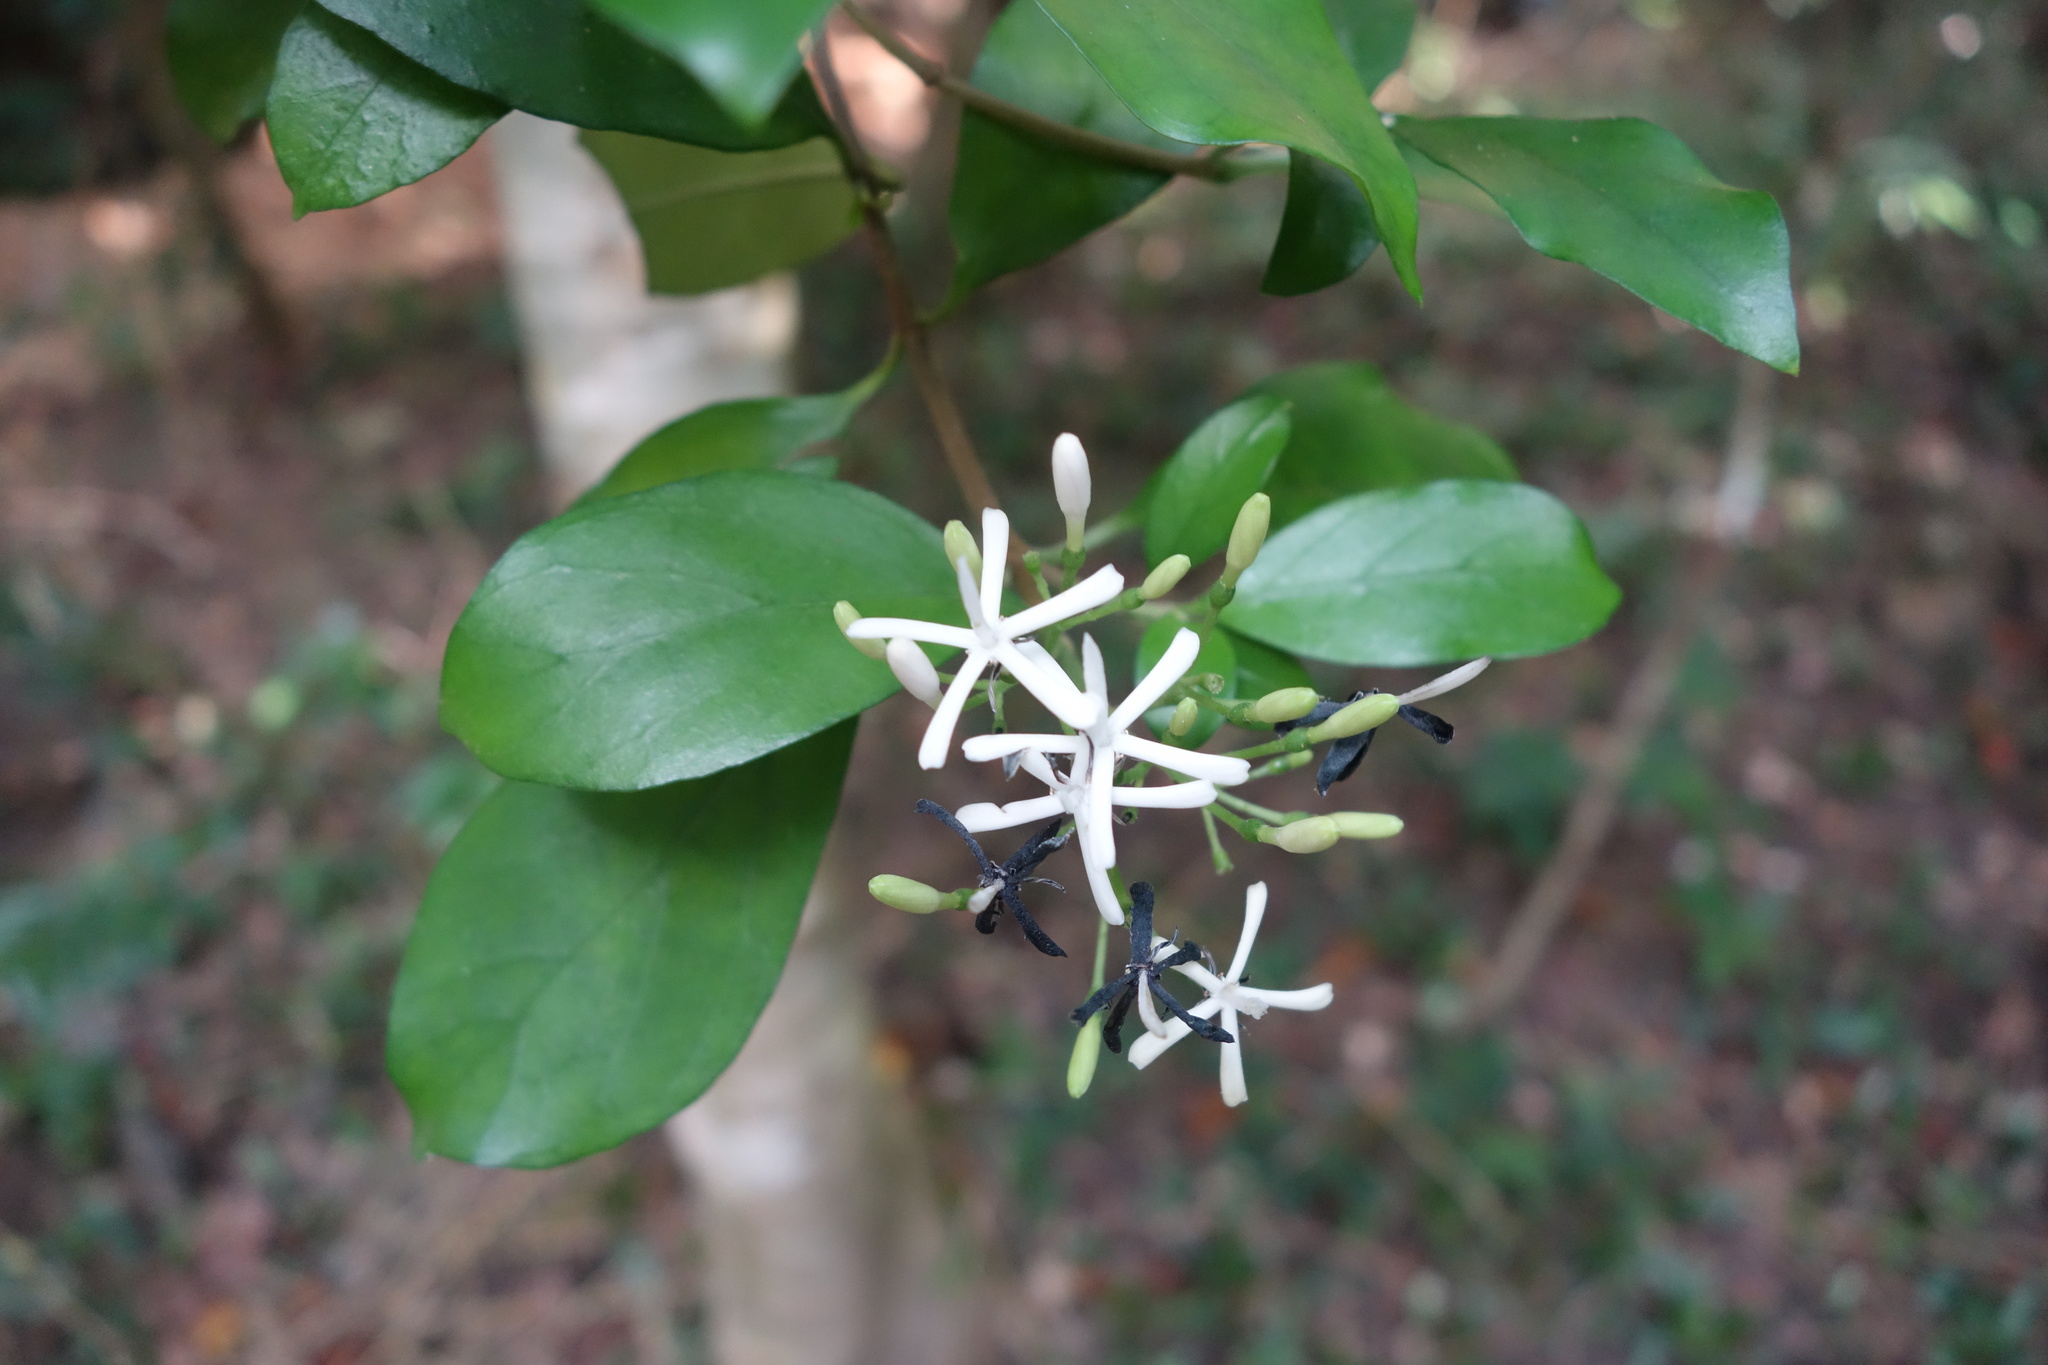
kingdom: Plantae
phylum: Tracheophyta
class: Magnoliopsida
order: Gentianales
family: Rubiaceae
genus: Tarenna
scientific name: Tarenna gracilipes
